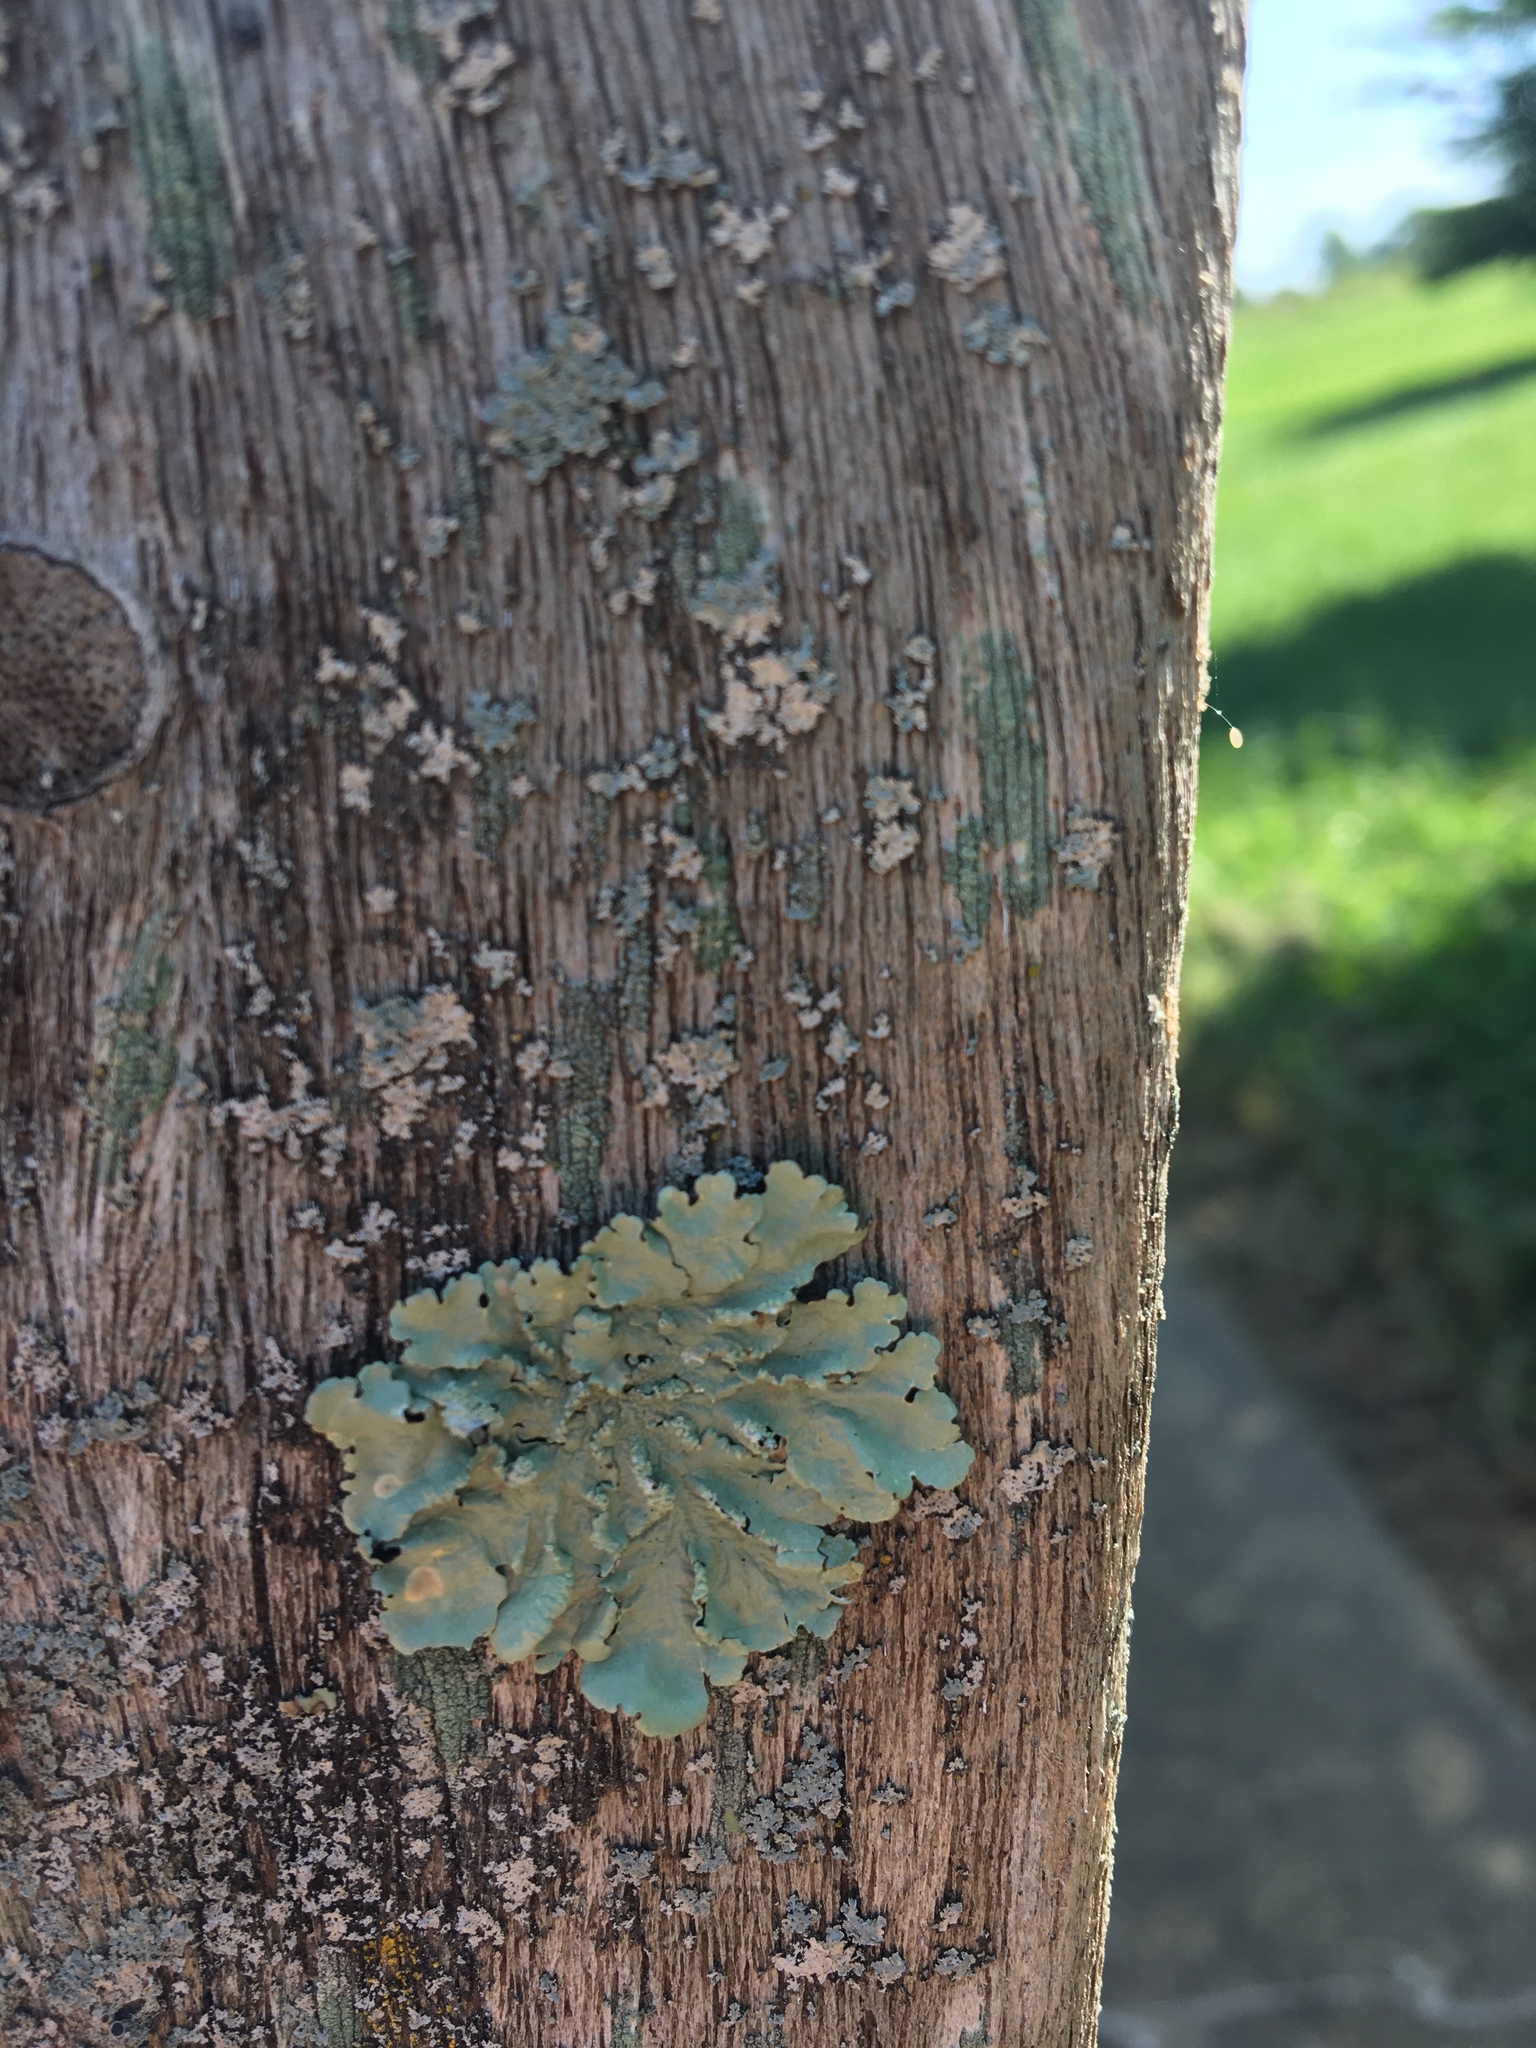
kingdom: Fungi
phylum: Ascomycota
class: Lecanoromycetes
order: Lecanorales
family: Parmeliaceae
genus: Flavoparmelia
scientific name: Flavoparmelia caperata
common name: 40-mile per hour lichen
